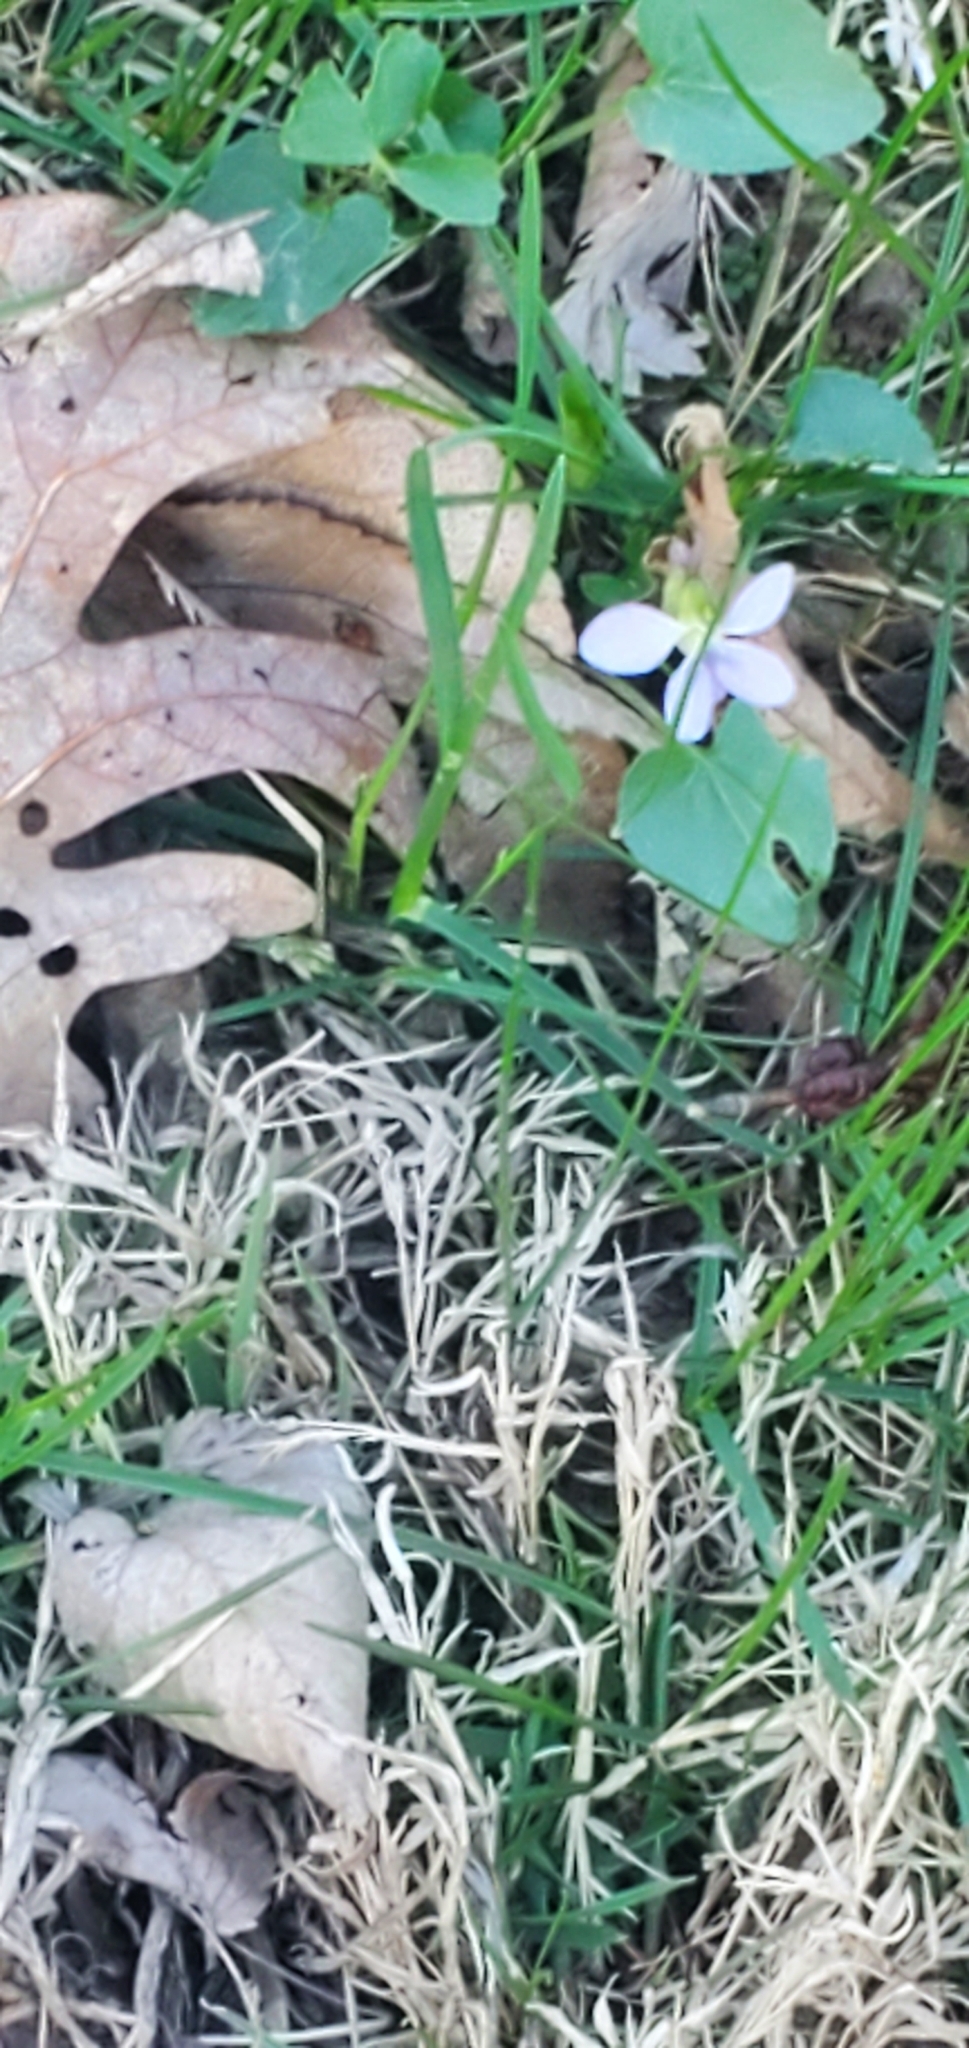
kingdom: Plantae
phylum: Tracheophyta
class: Magnoliopsida
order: Malpighiales
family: Violaceae
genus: Viola
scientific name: Viola missouriensis
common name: Missouri violet
